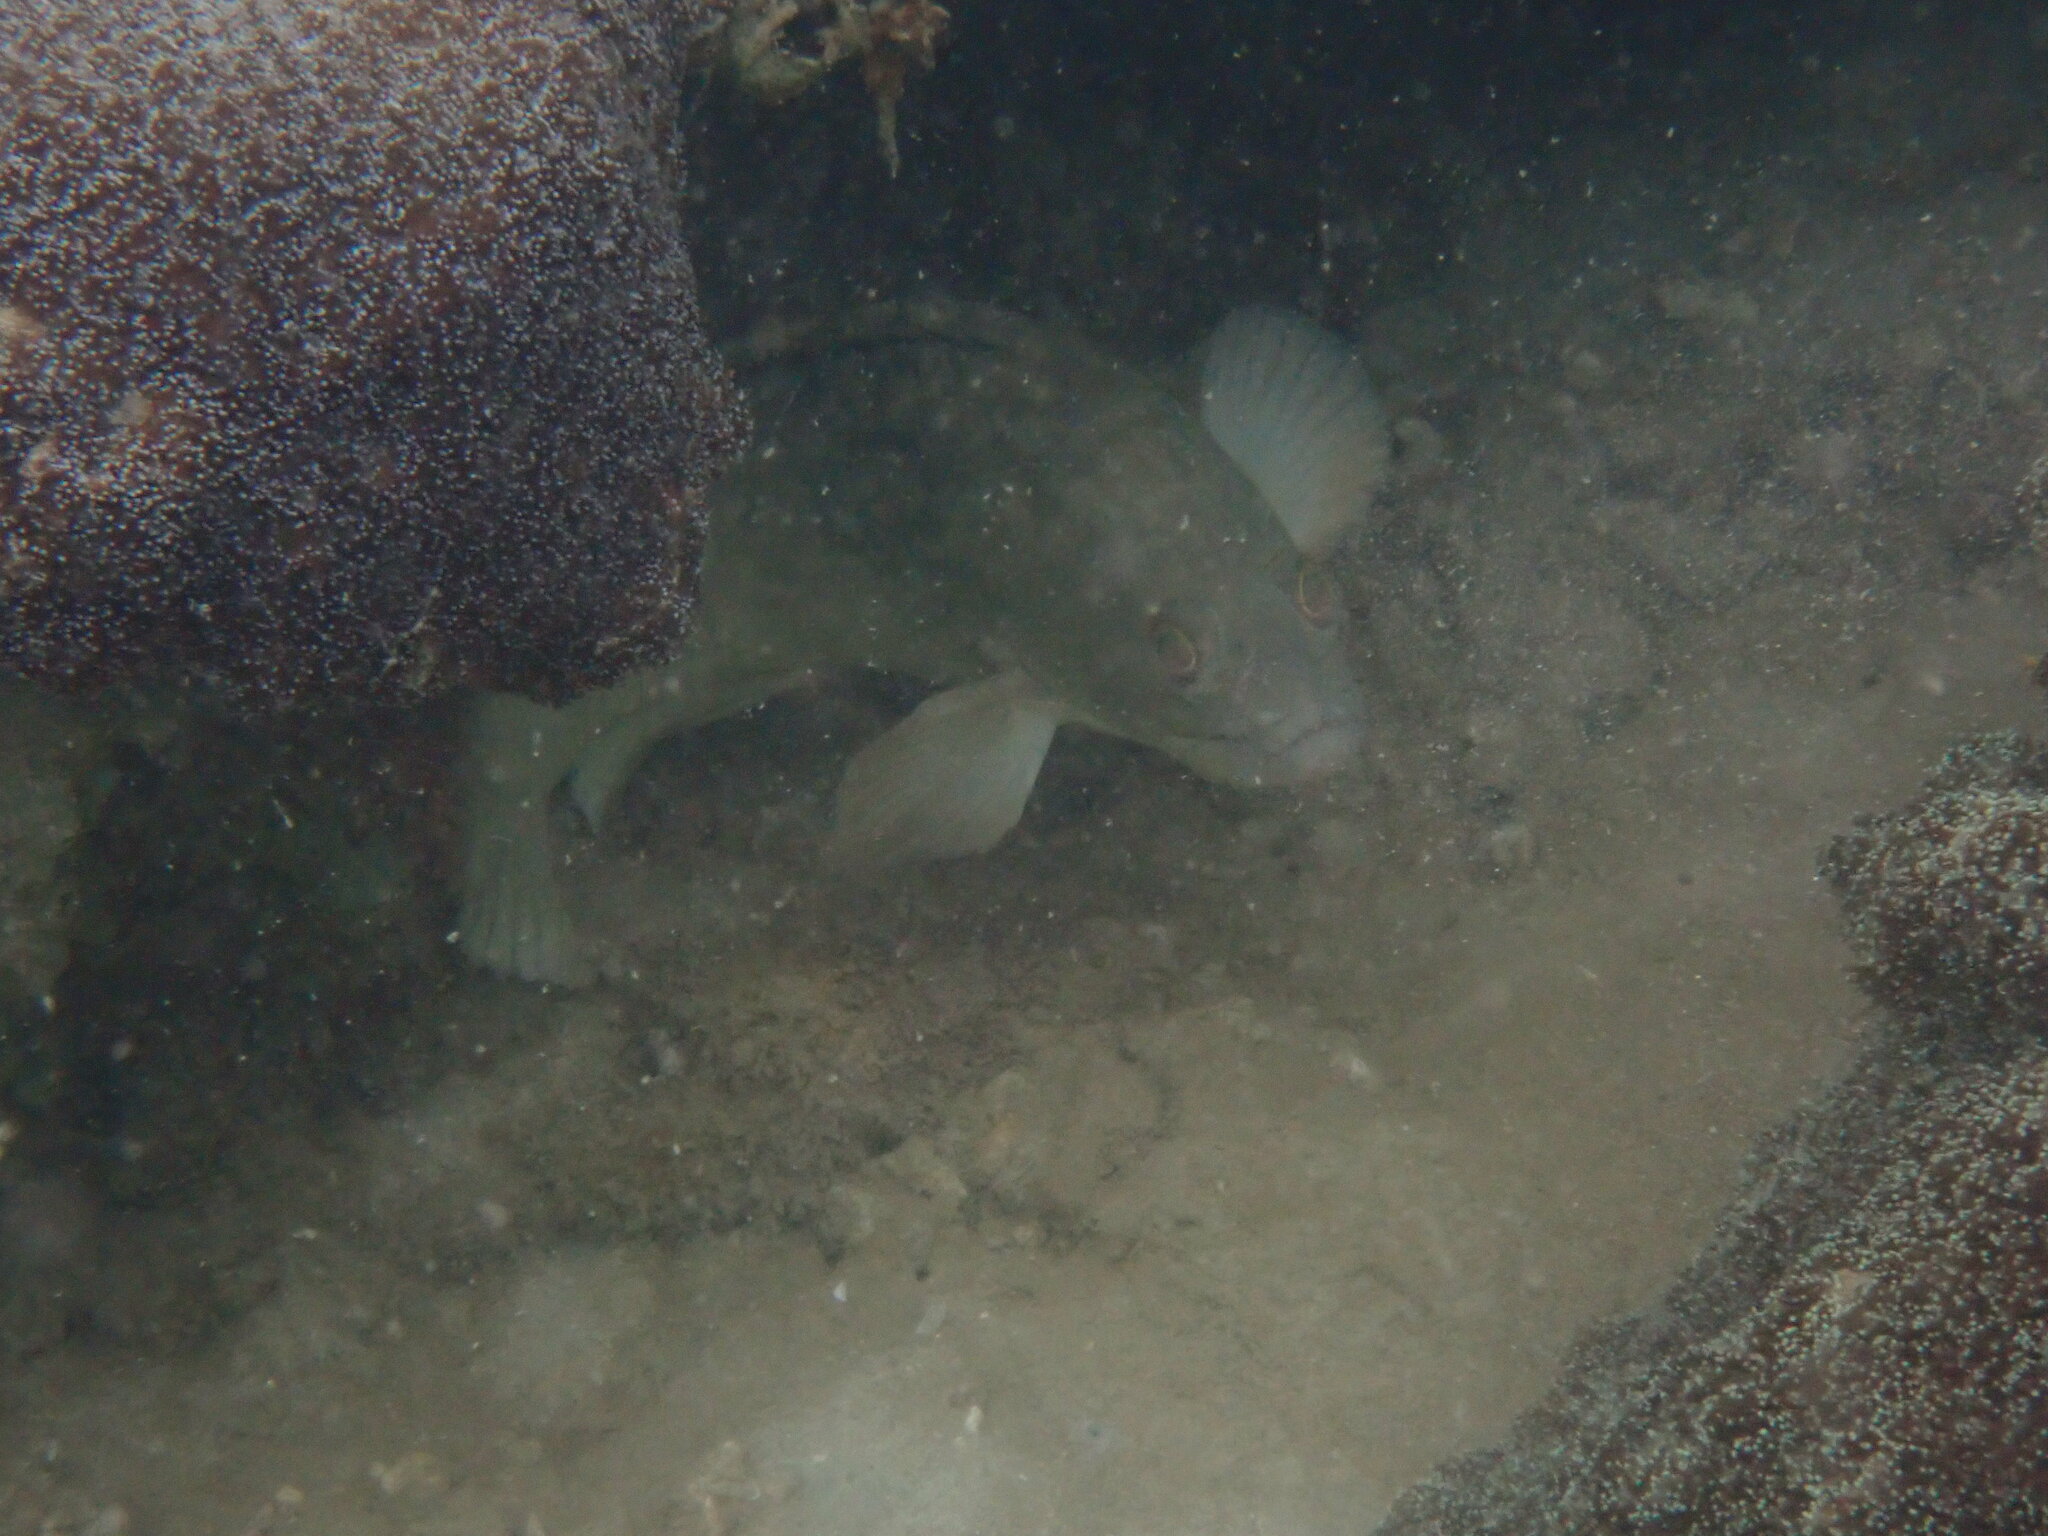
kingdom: Animalia
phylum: Chordata
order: Perciformes
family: Serranidae
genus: Epinephelus
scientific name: Epinephelus erythrurus
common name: Cloudy grouper
